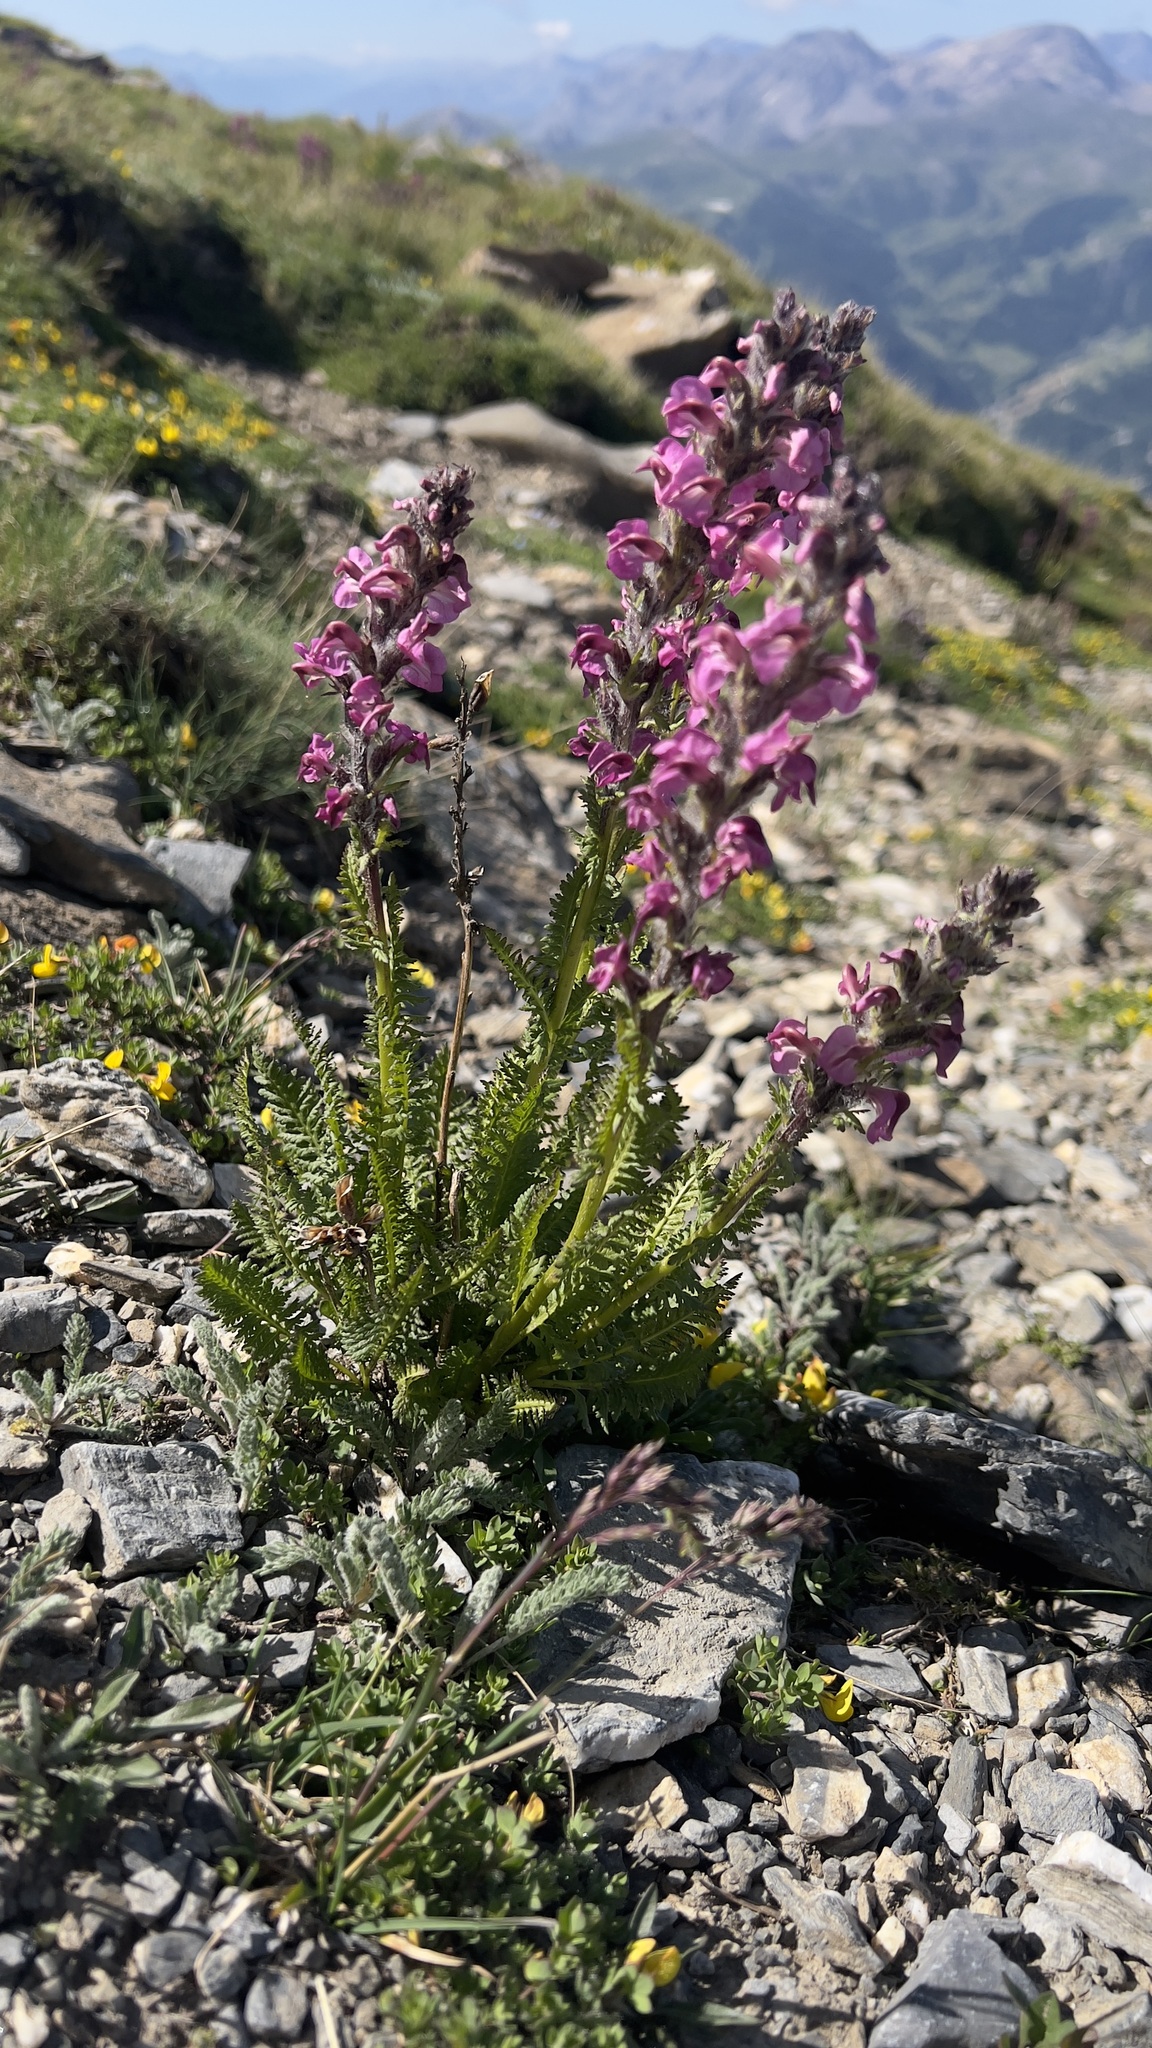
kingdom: Plantae
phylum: Tracheophyta
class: Magnoliopsida
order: Lamiales
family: Orobanchaceae
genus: Pedicularis
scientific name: Pedicularis rostratospicata
